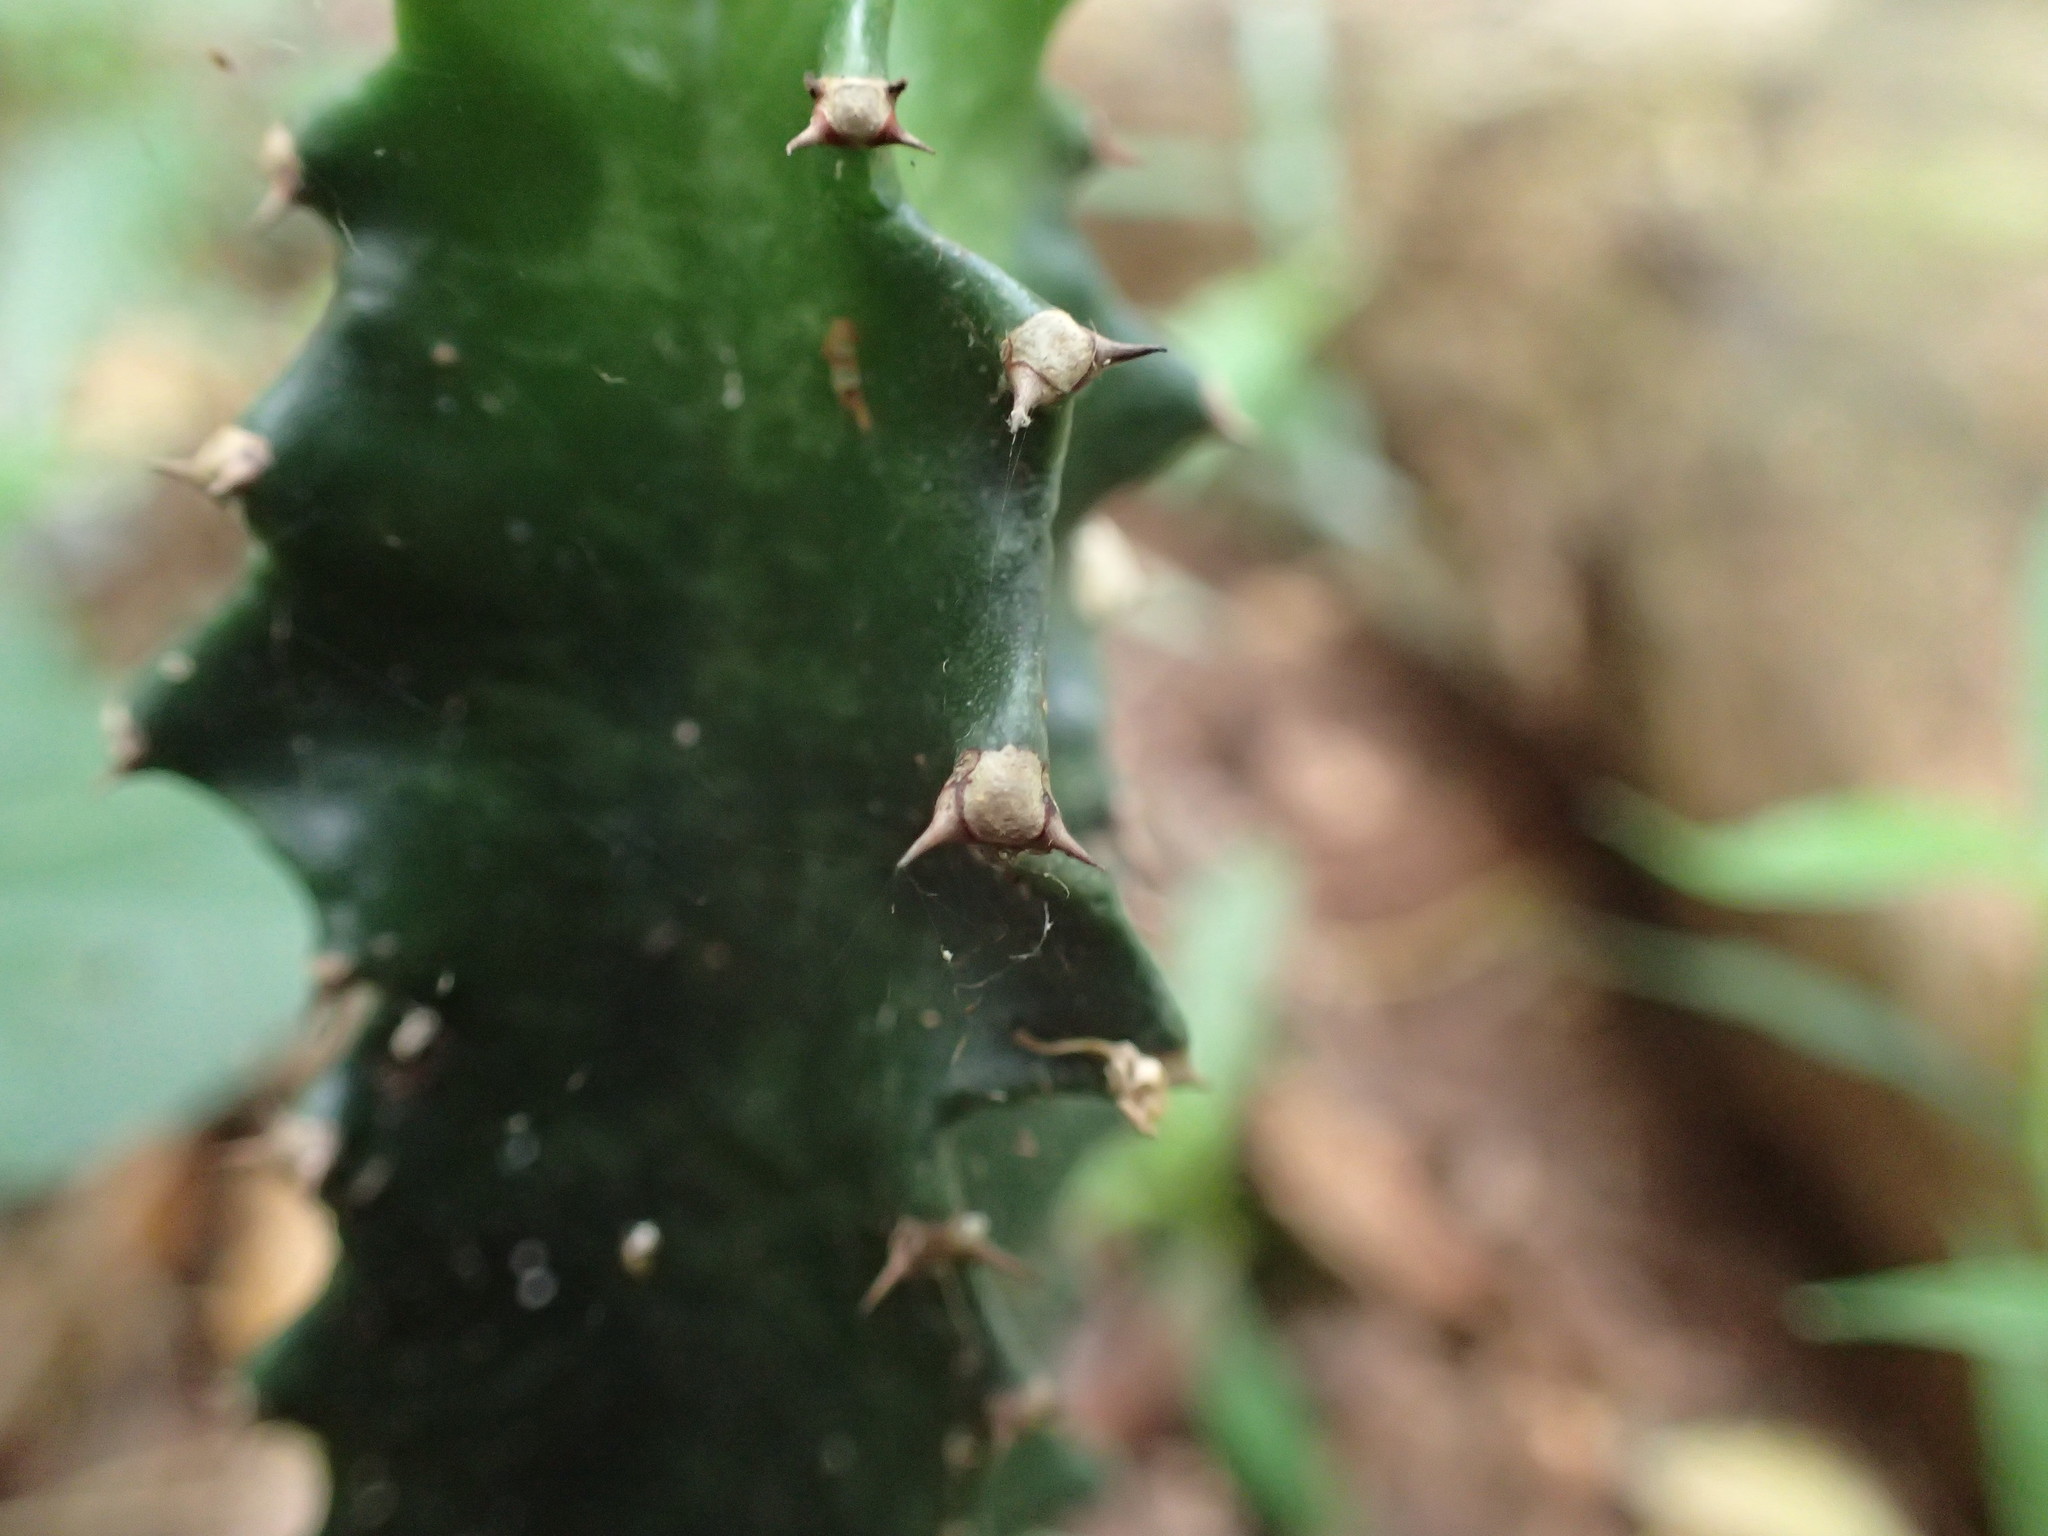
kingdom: Plantae
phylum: Tracheophyta
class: Magnoliopsida
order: Malpighiales
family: Euphorbiaceae
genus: Euphorbia
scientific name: Euphorbia triangularis
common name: Chandelier tree
